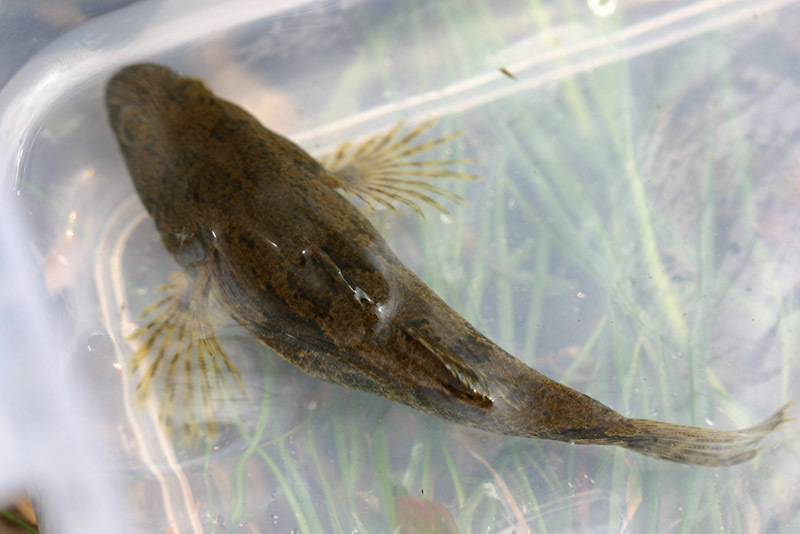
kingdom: Animalia
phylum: Chordata
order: Perciformes
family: Odontobutidae
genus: Odontobutis
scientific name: Odontobutis interrupta
